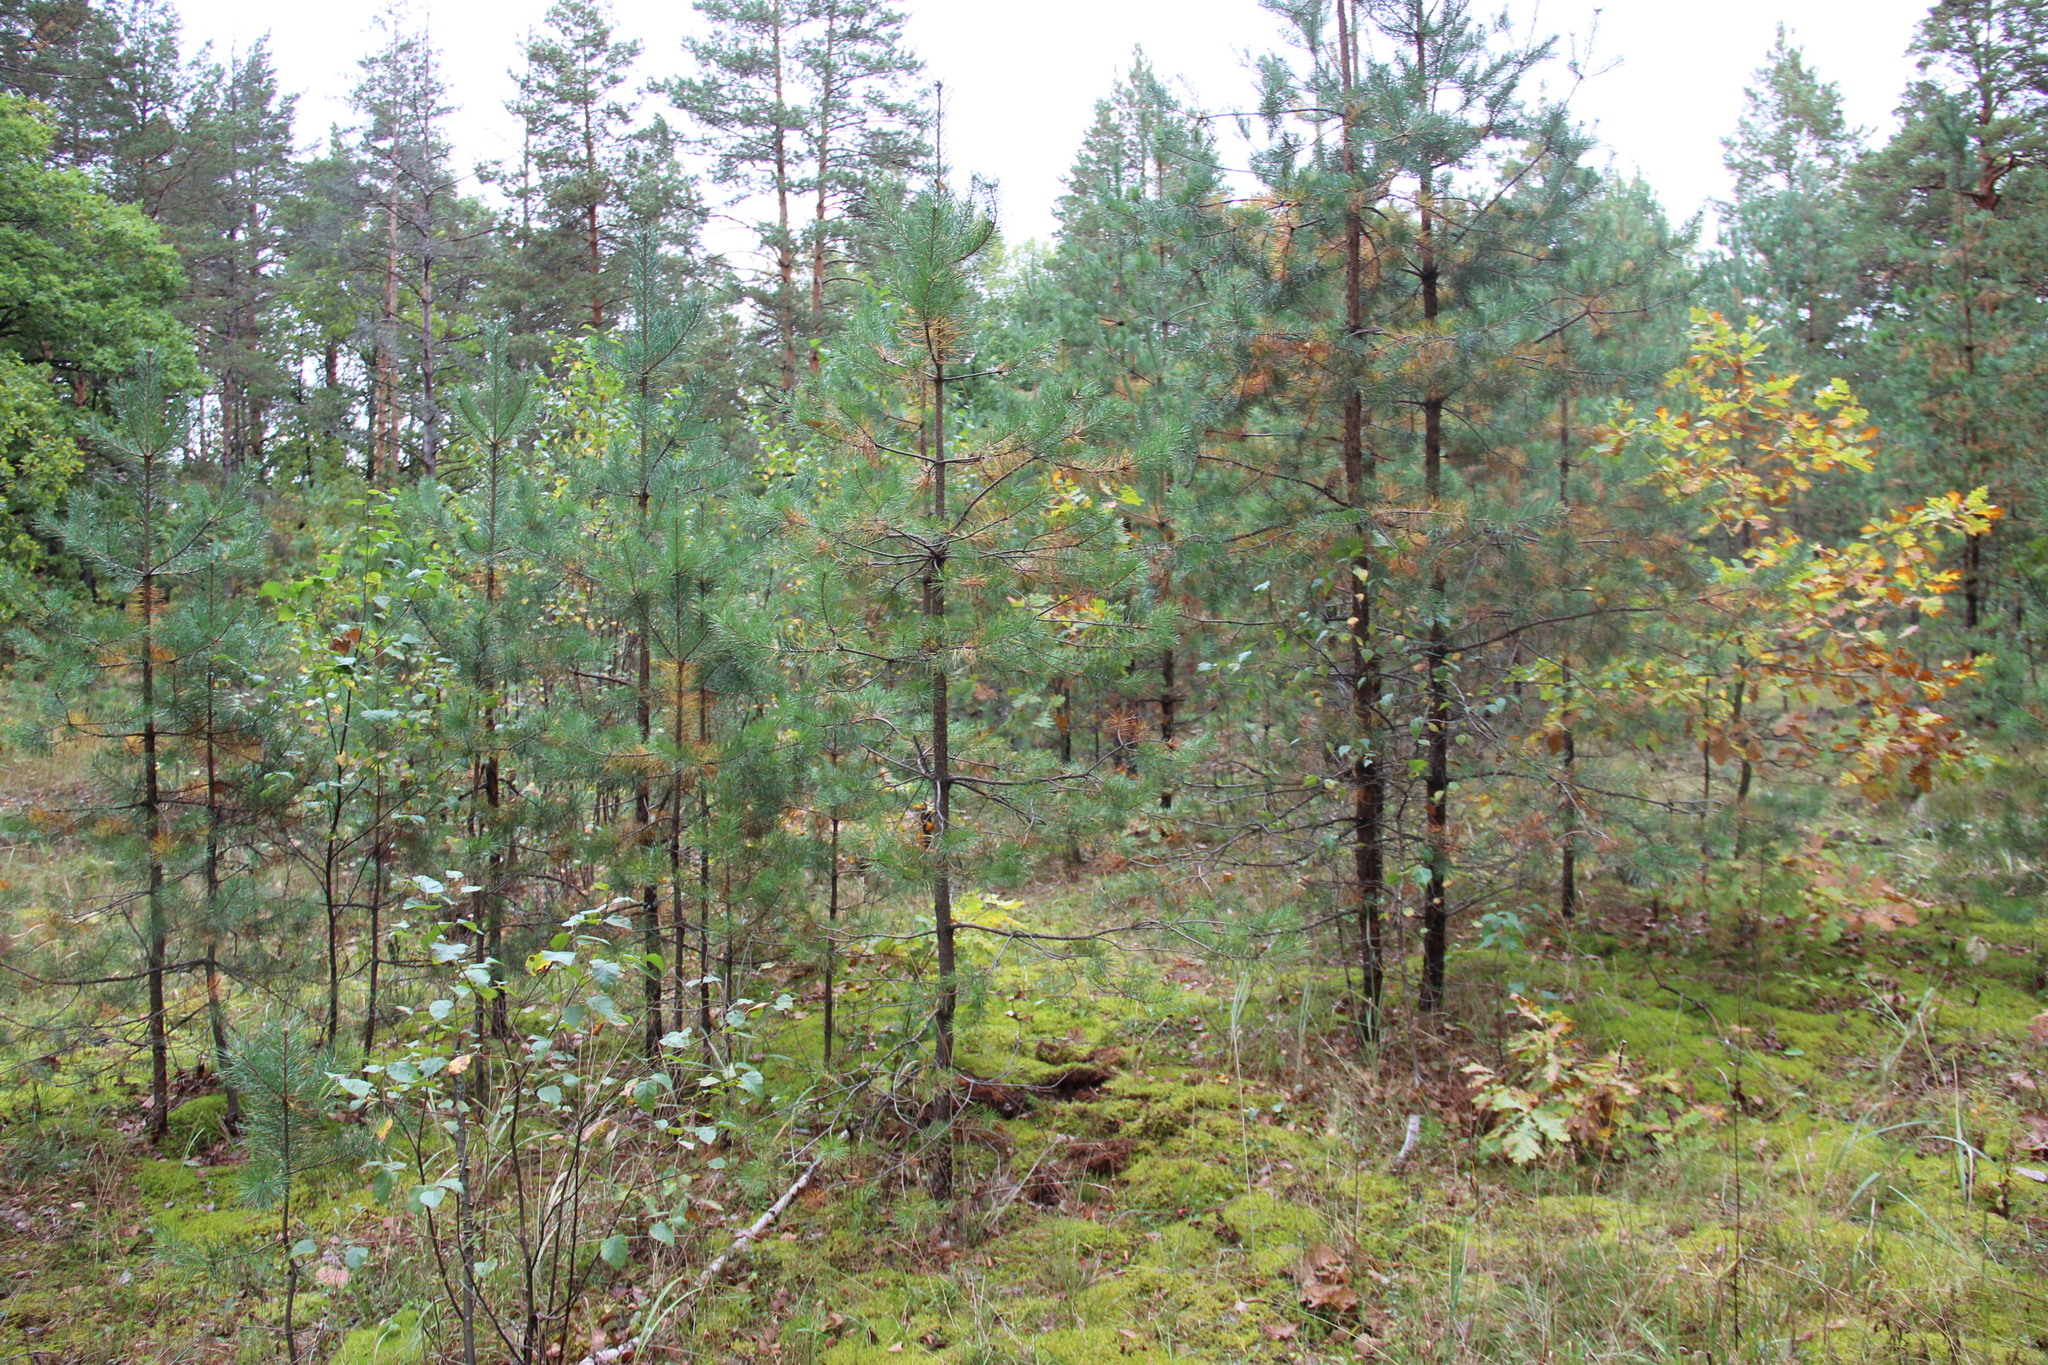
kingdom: Plantae
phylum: Tracheophyta
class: Pinopsida
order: Pinales
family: Pinaceae
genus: Pinus
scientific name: Pinus sylvestris
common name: Scots pine
